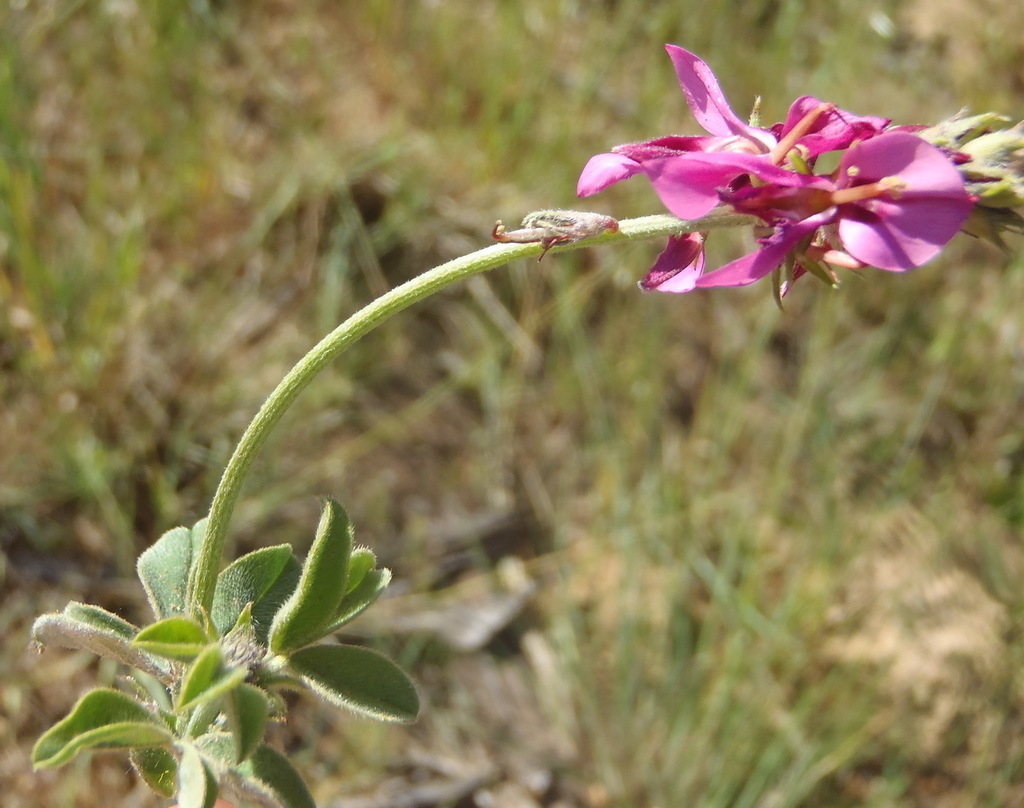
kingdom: Plantae
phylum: Tracheophyta
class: Magnoliopsida
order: Fabales
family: Fabaceae
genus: Indigofera
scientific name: Indigofera incana
